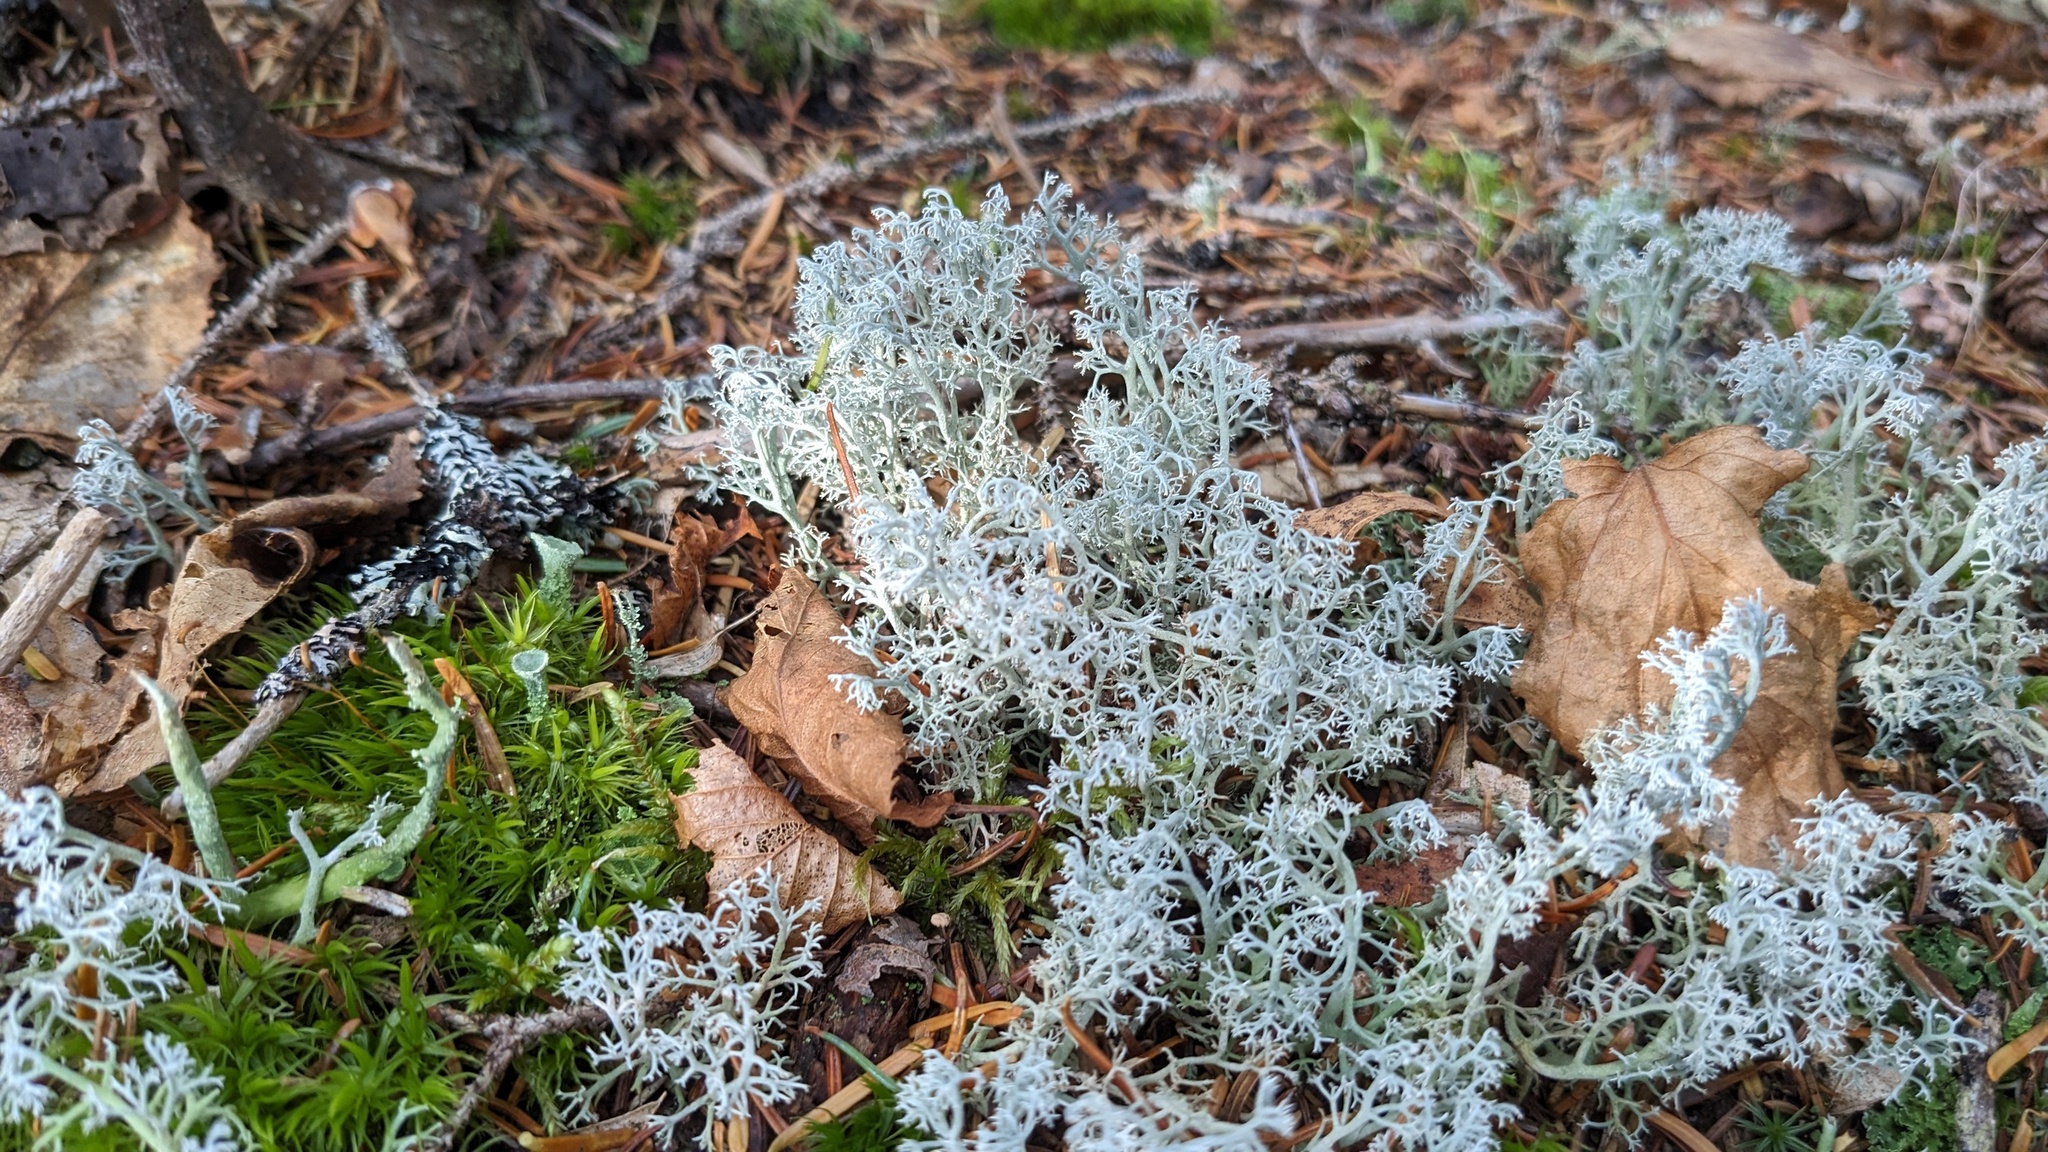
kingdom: Fungi
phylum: Ascomycota
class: Lecanoromycetes
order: Lecanorales
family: Cladoniaceae
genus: Cladonia
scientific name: Cladonia rangiferina
